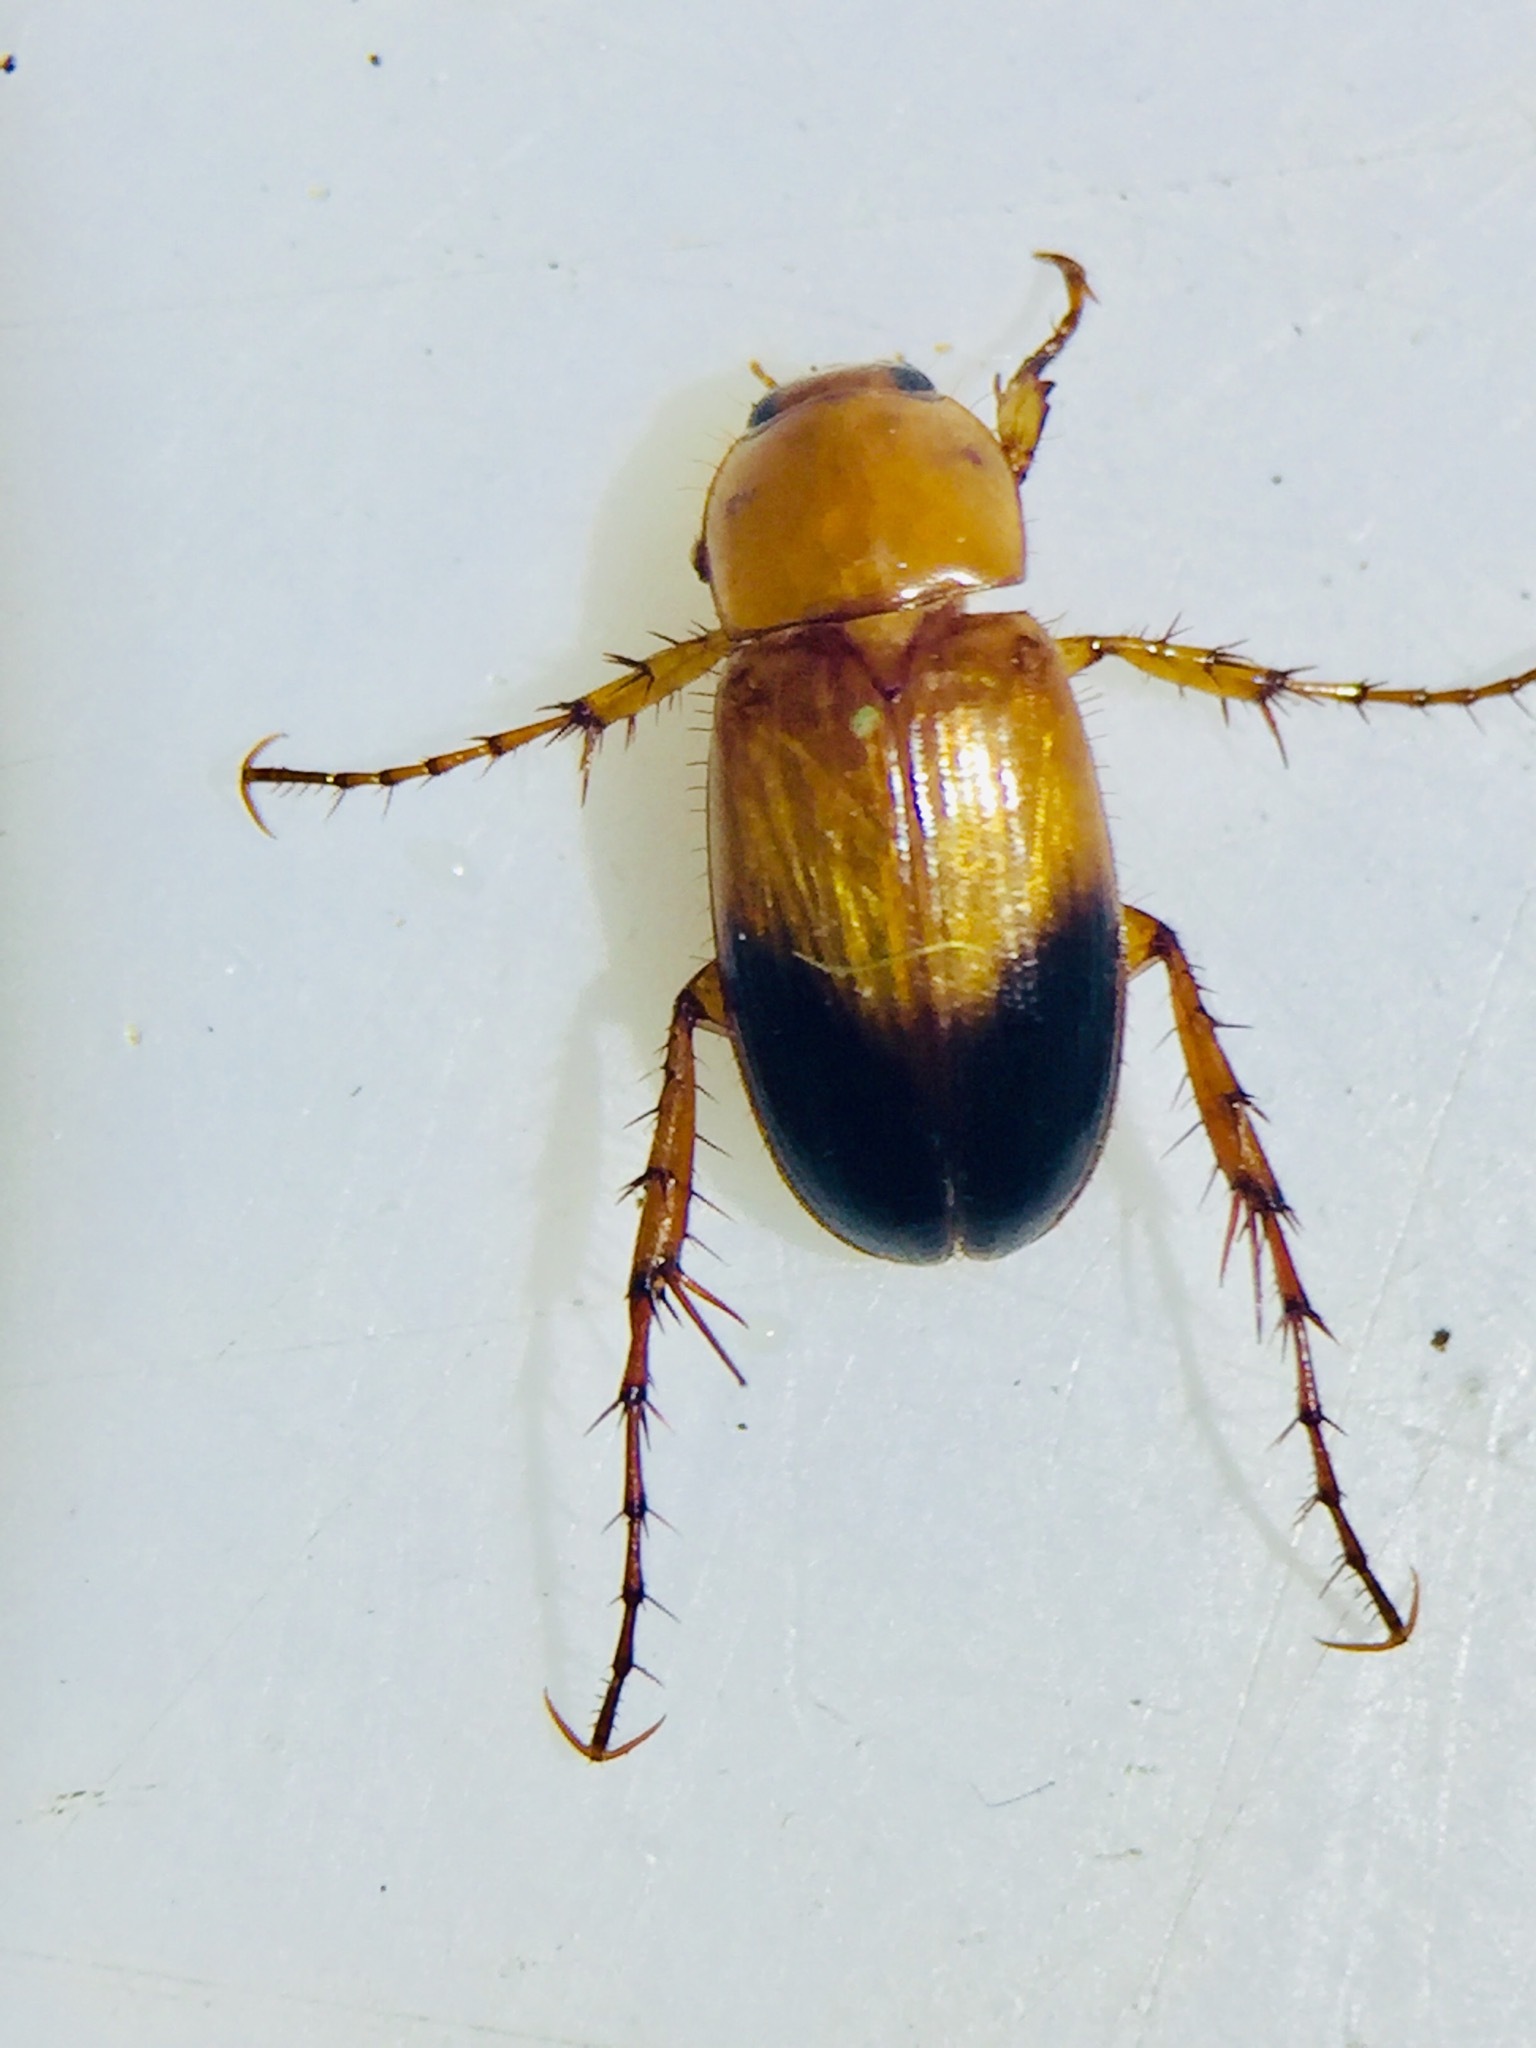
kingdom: Animalia
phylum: Arthropoda
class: Insecta
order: Coleoptera
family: Scarabaeidae
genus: Phyllotocus
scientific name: Phyllotocus macleayi
